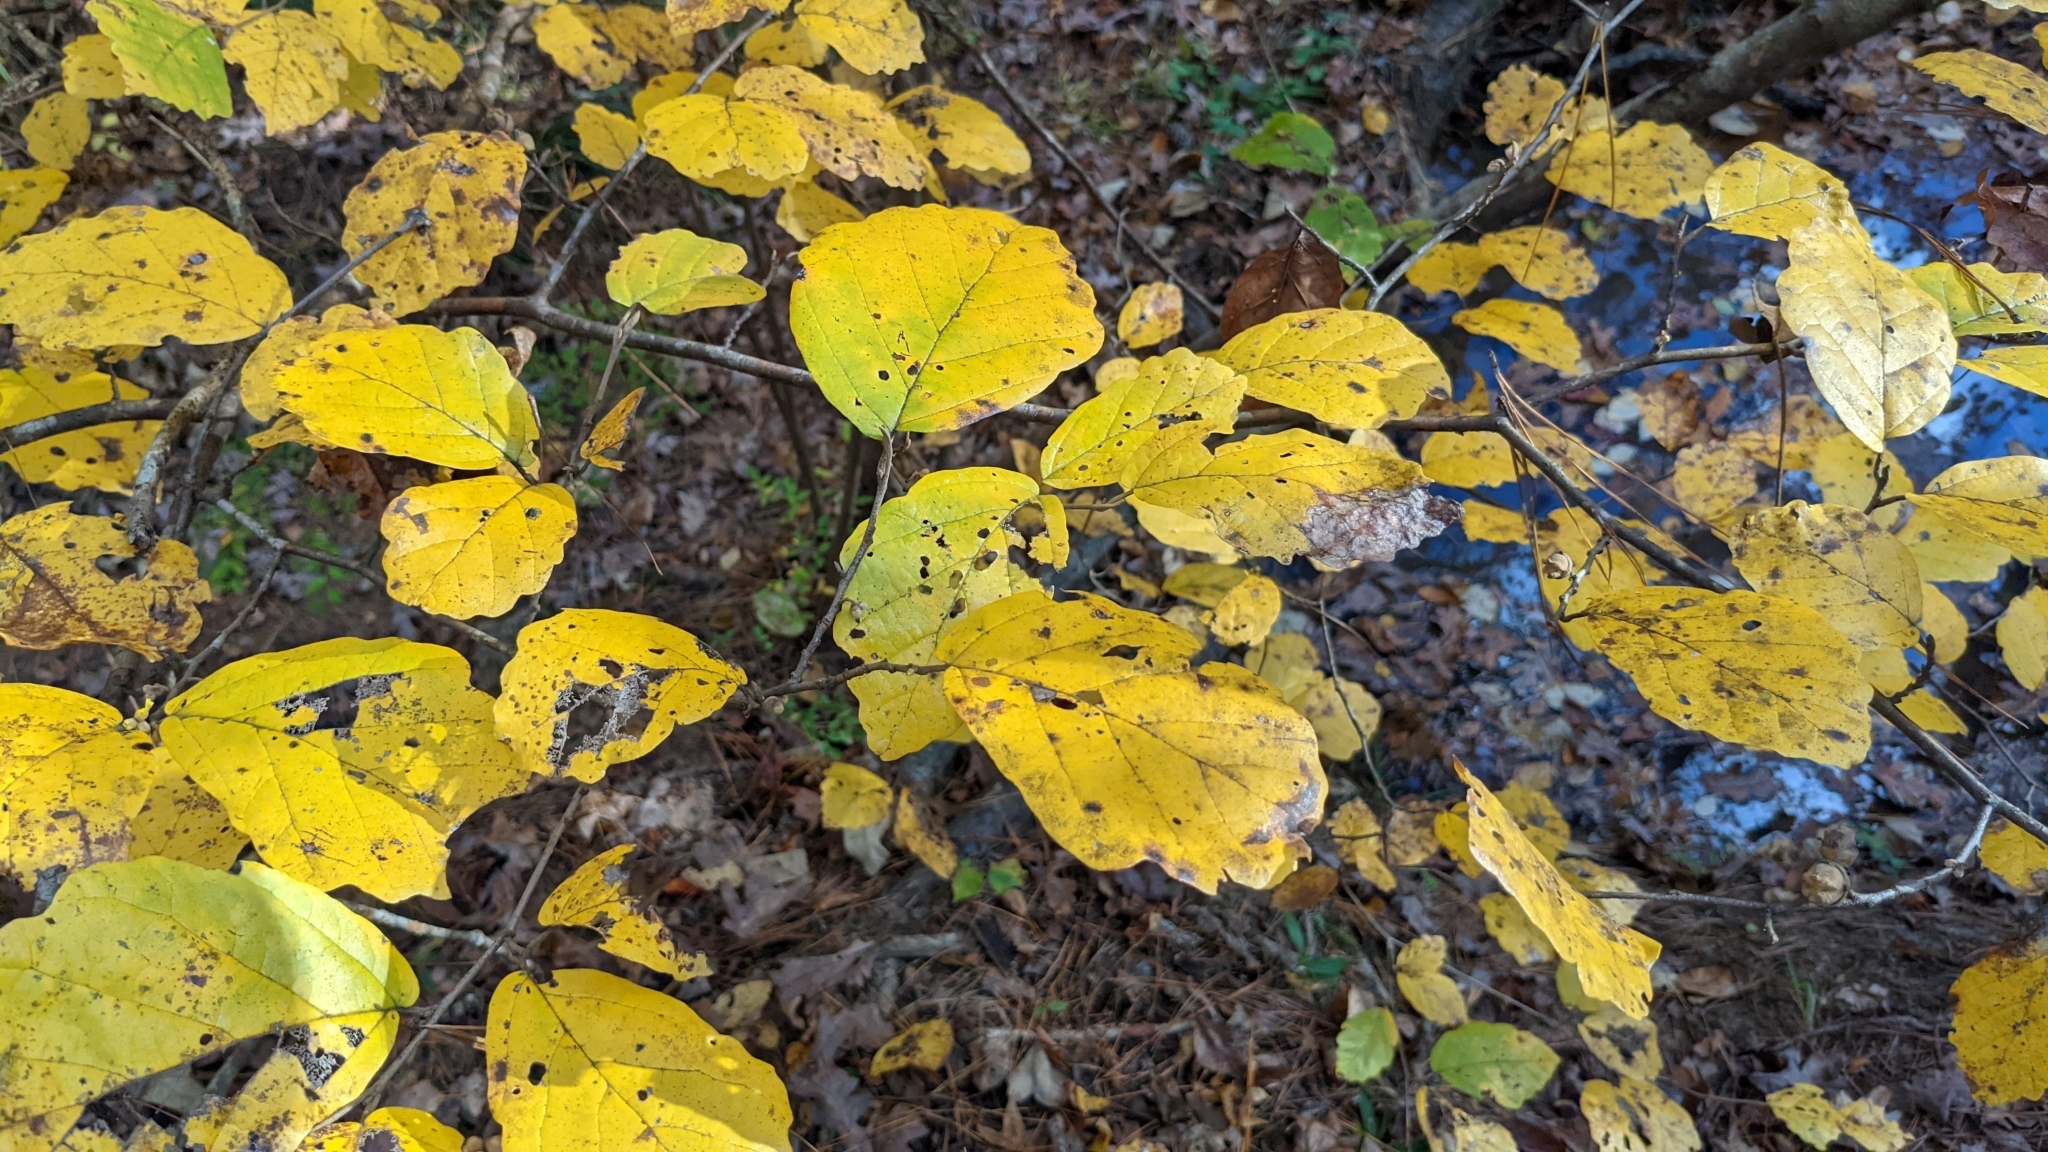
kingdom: Plantae
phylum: Tracheophyta
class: Magnoliopsida
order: Saxifragales
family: Hamamelidaceae
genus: Hamamelis
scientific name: Hamamelis virginiana
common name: Witch-hazel
